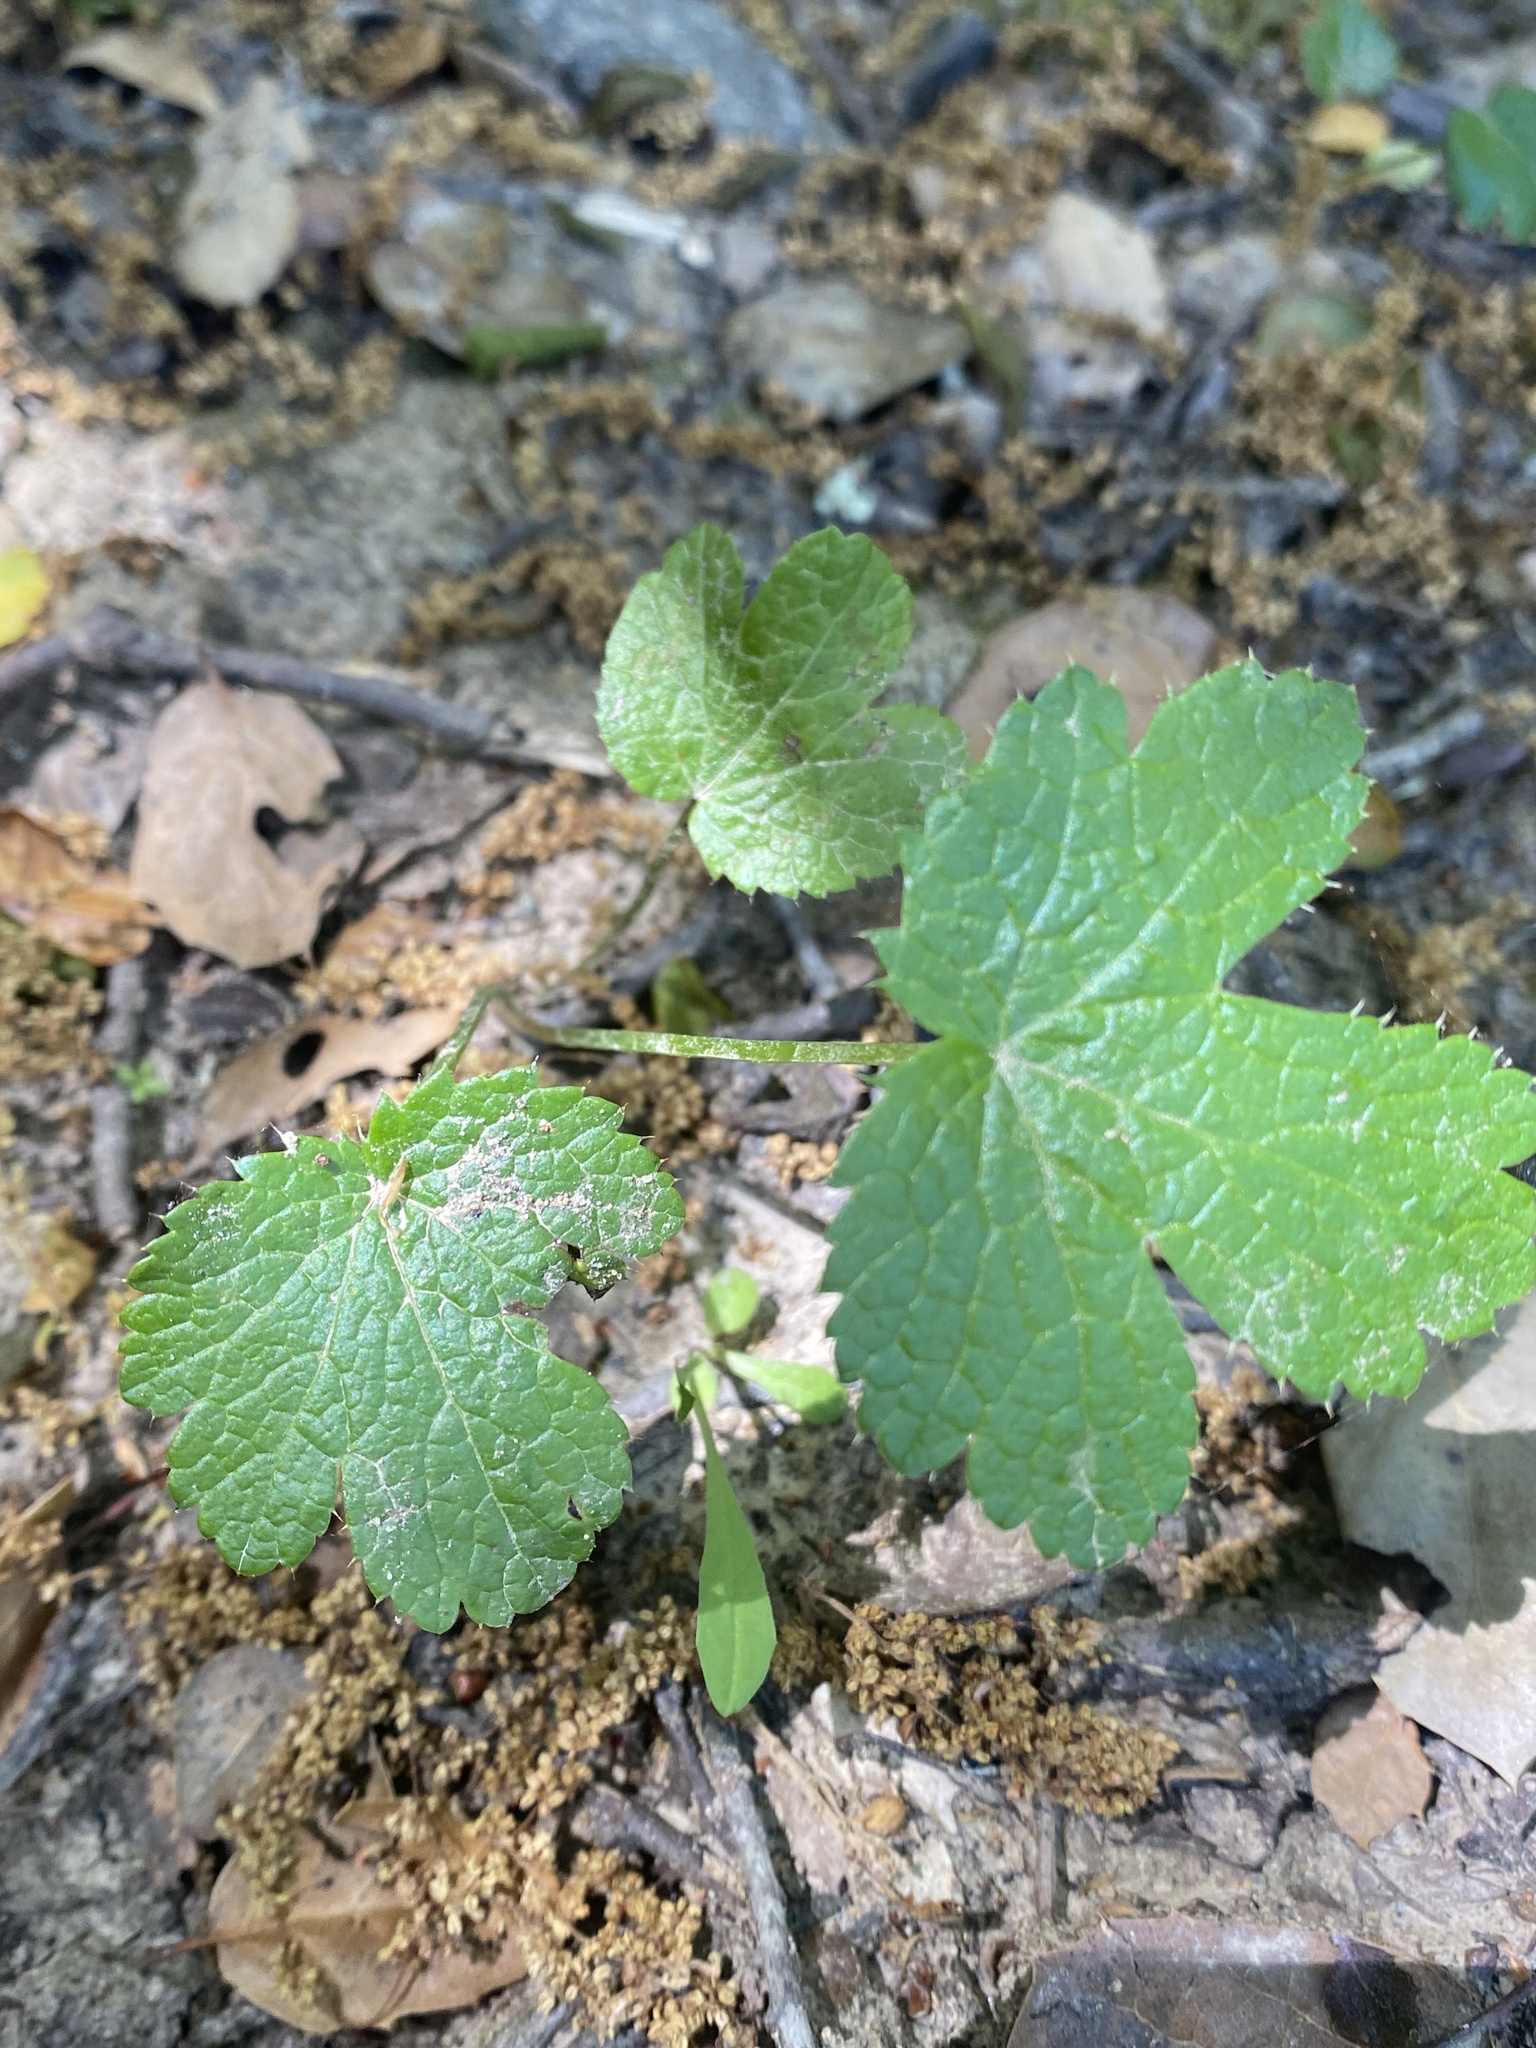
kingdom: Plantae
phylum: Tracheophyta
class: Magnoliopsida
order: Apiales
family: Apiaceae
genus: Sanicula
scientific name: Sanicula crassicaulis
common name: Western snakeroot
